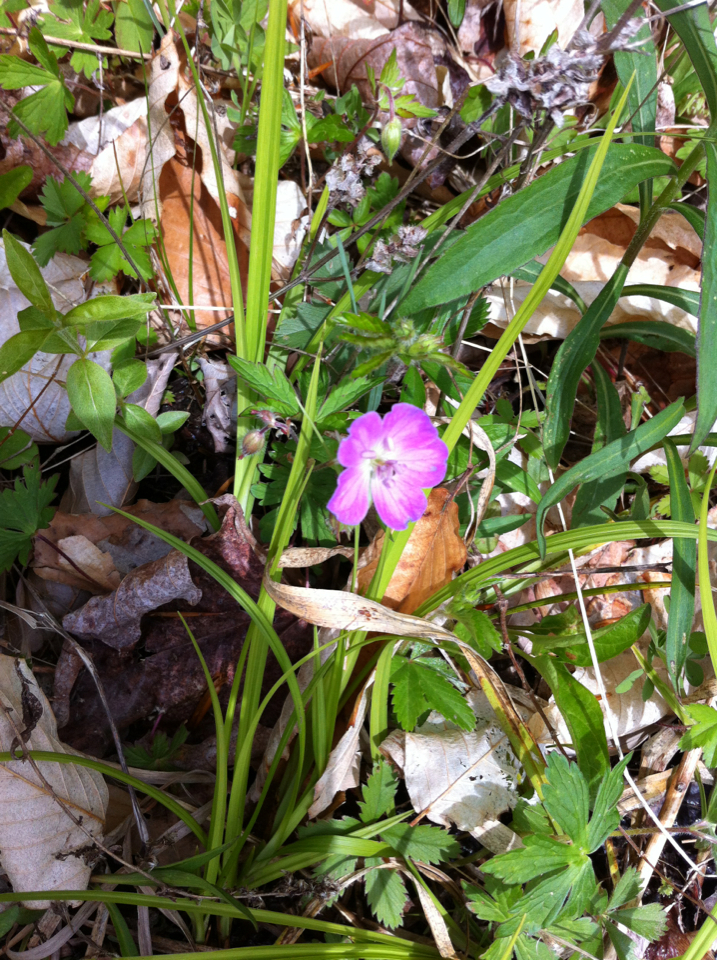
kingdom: Plantae
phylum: Tracheophyta
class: Magnoliopsida
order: Geraniales
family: Geraniaceae
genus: Geranium
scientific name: Geranium maculatum
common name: Spotted geranium
